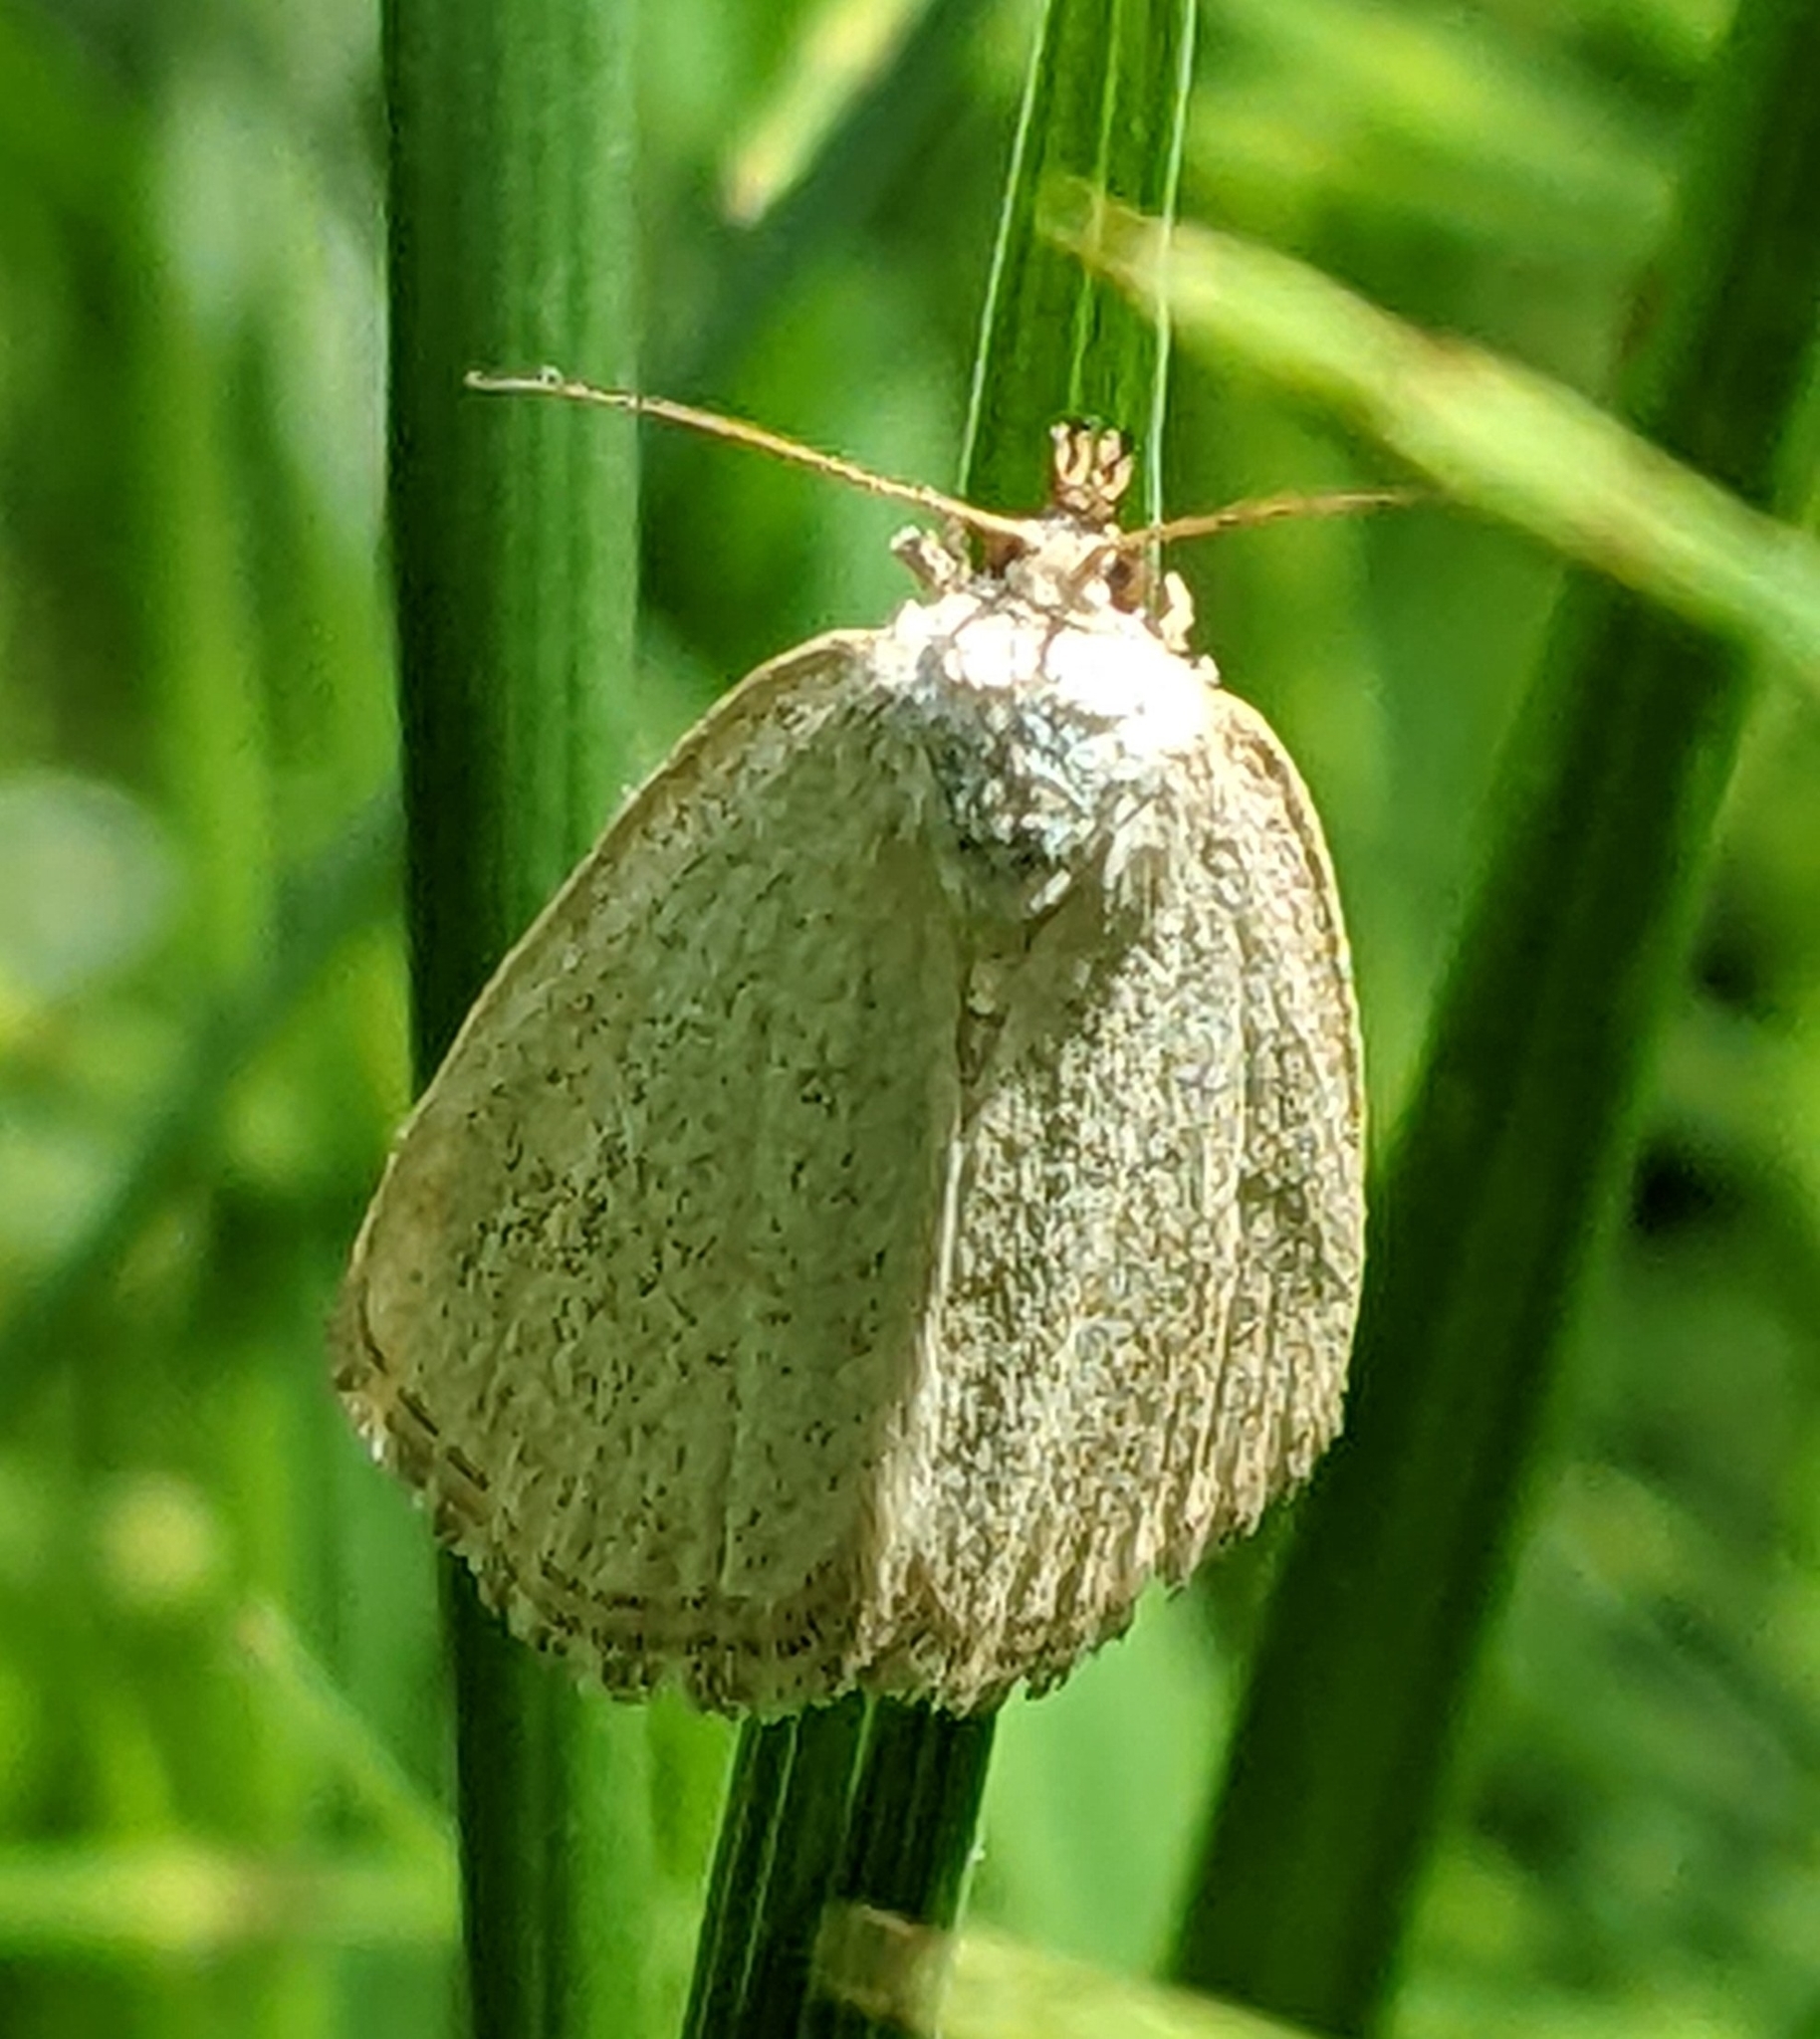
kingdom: Animalia
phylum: Arthropoda
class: Insecta
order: Lepidoptera
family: Noctuidae
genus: Protodeltote
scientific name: Protodeltote albidula
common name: Pale glyph
